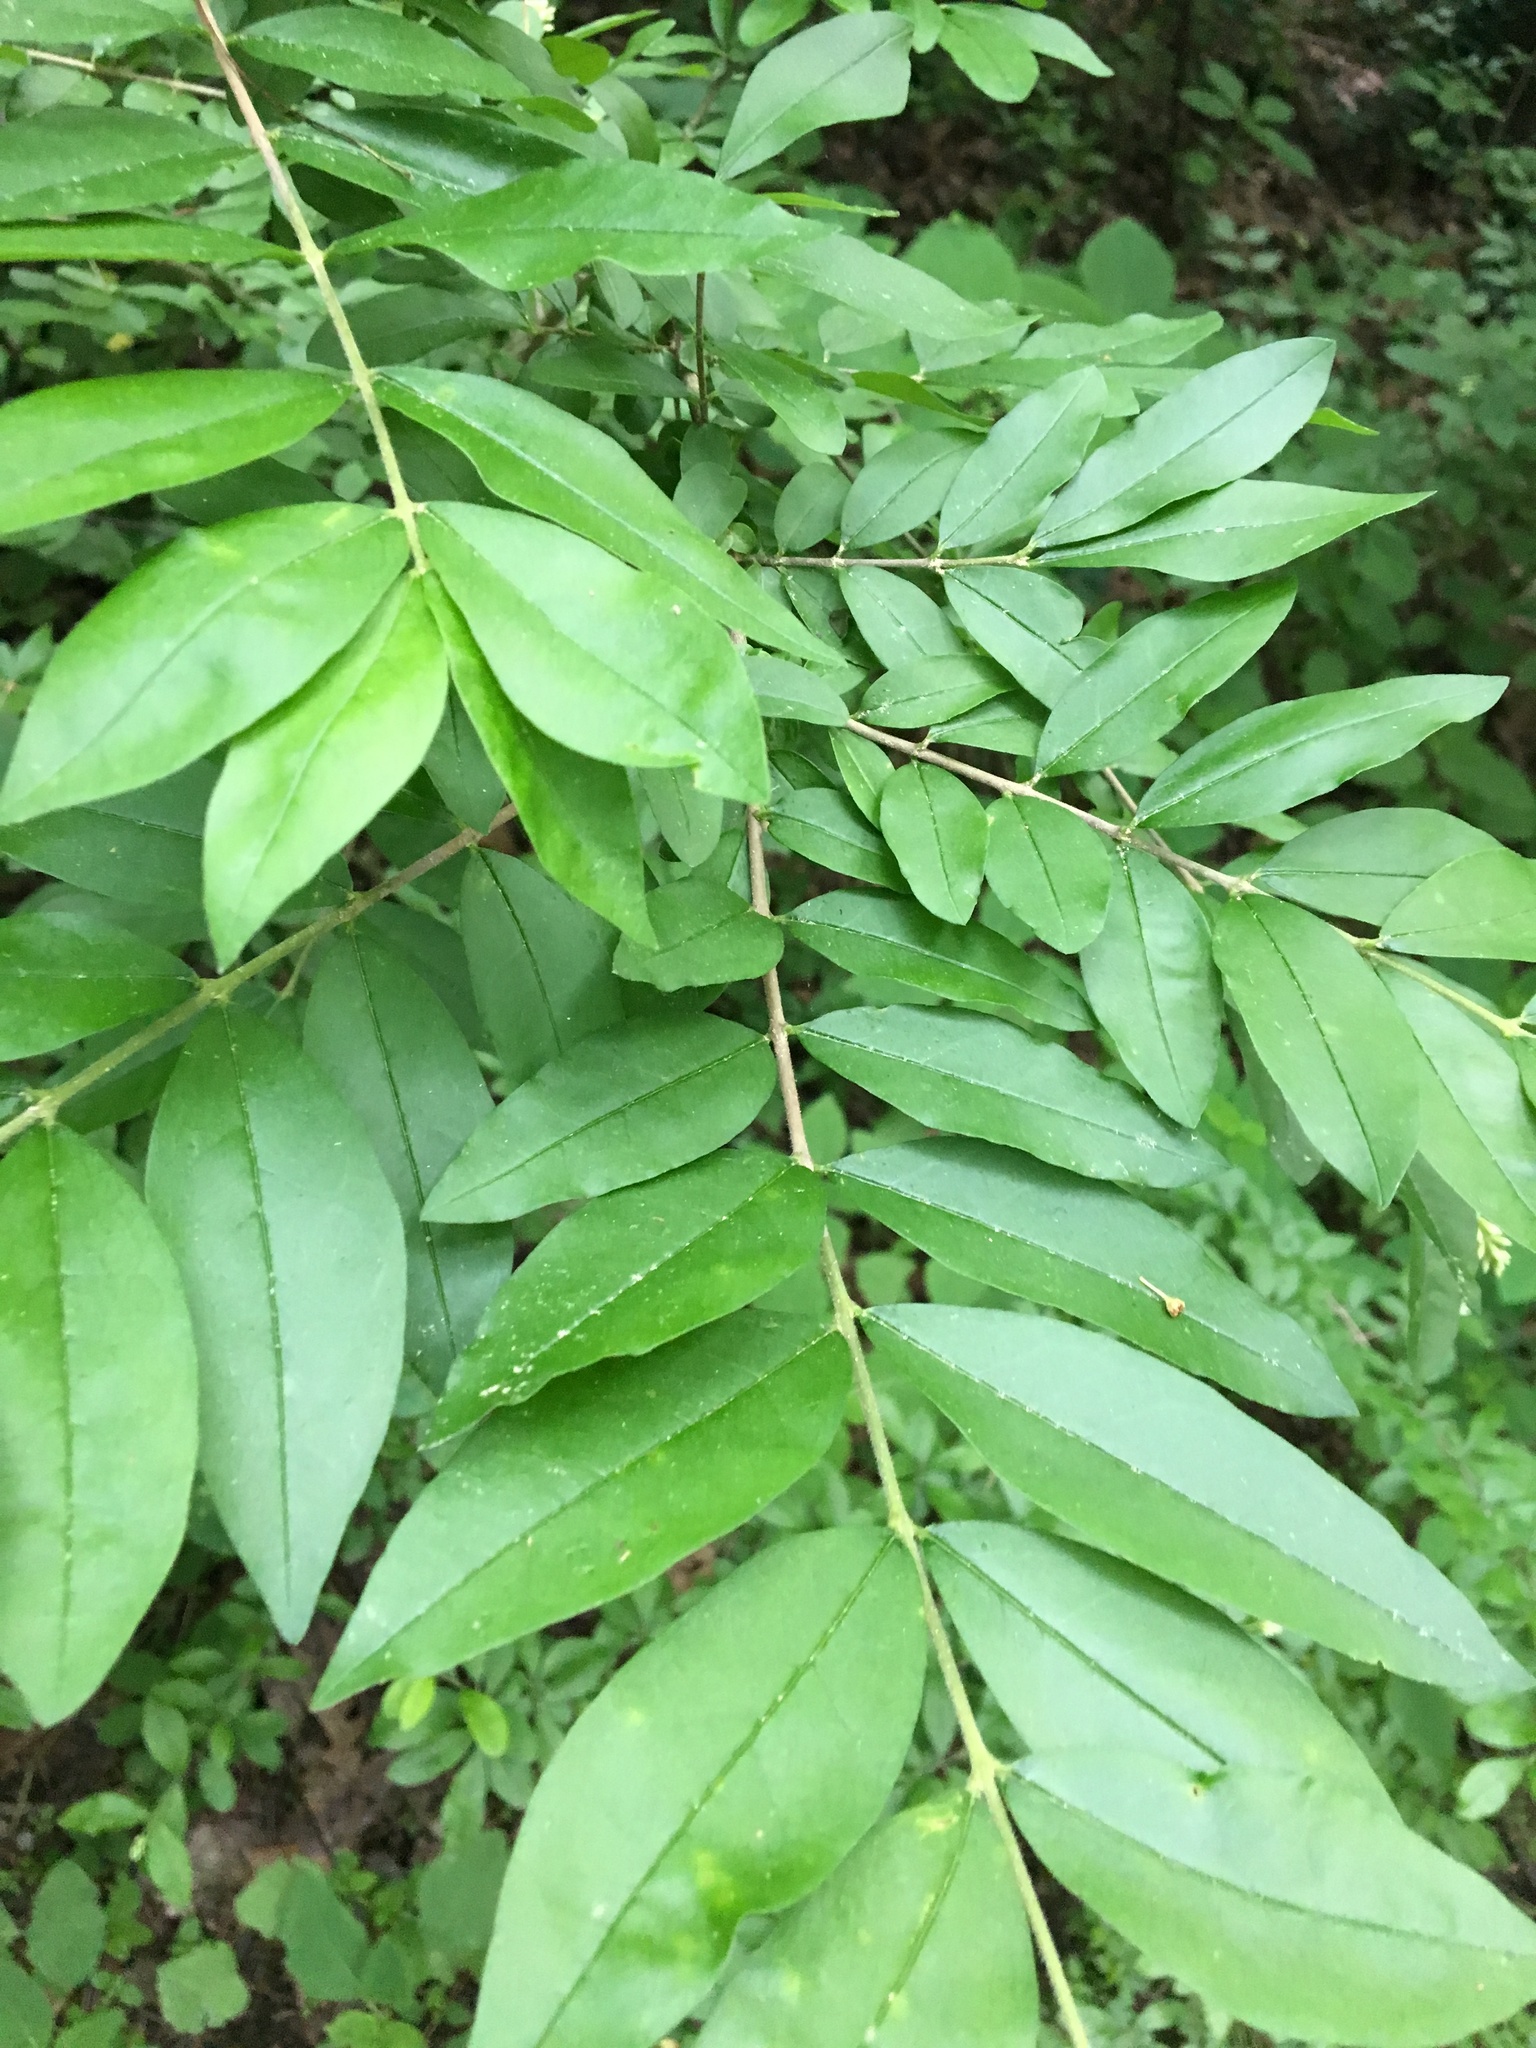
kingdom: Plantae
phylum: Tracheophyta
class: Magnoliopsida
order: Lamiales
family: Oleaceae
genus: Ligustrum
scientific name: Ligustrum obtusifolium
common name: Border privet
